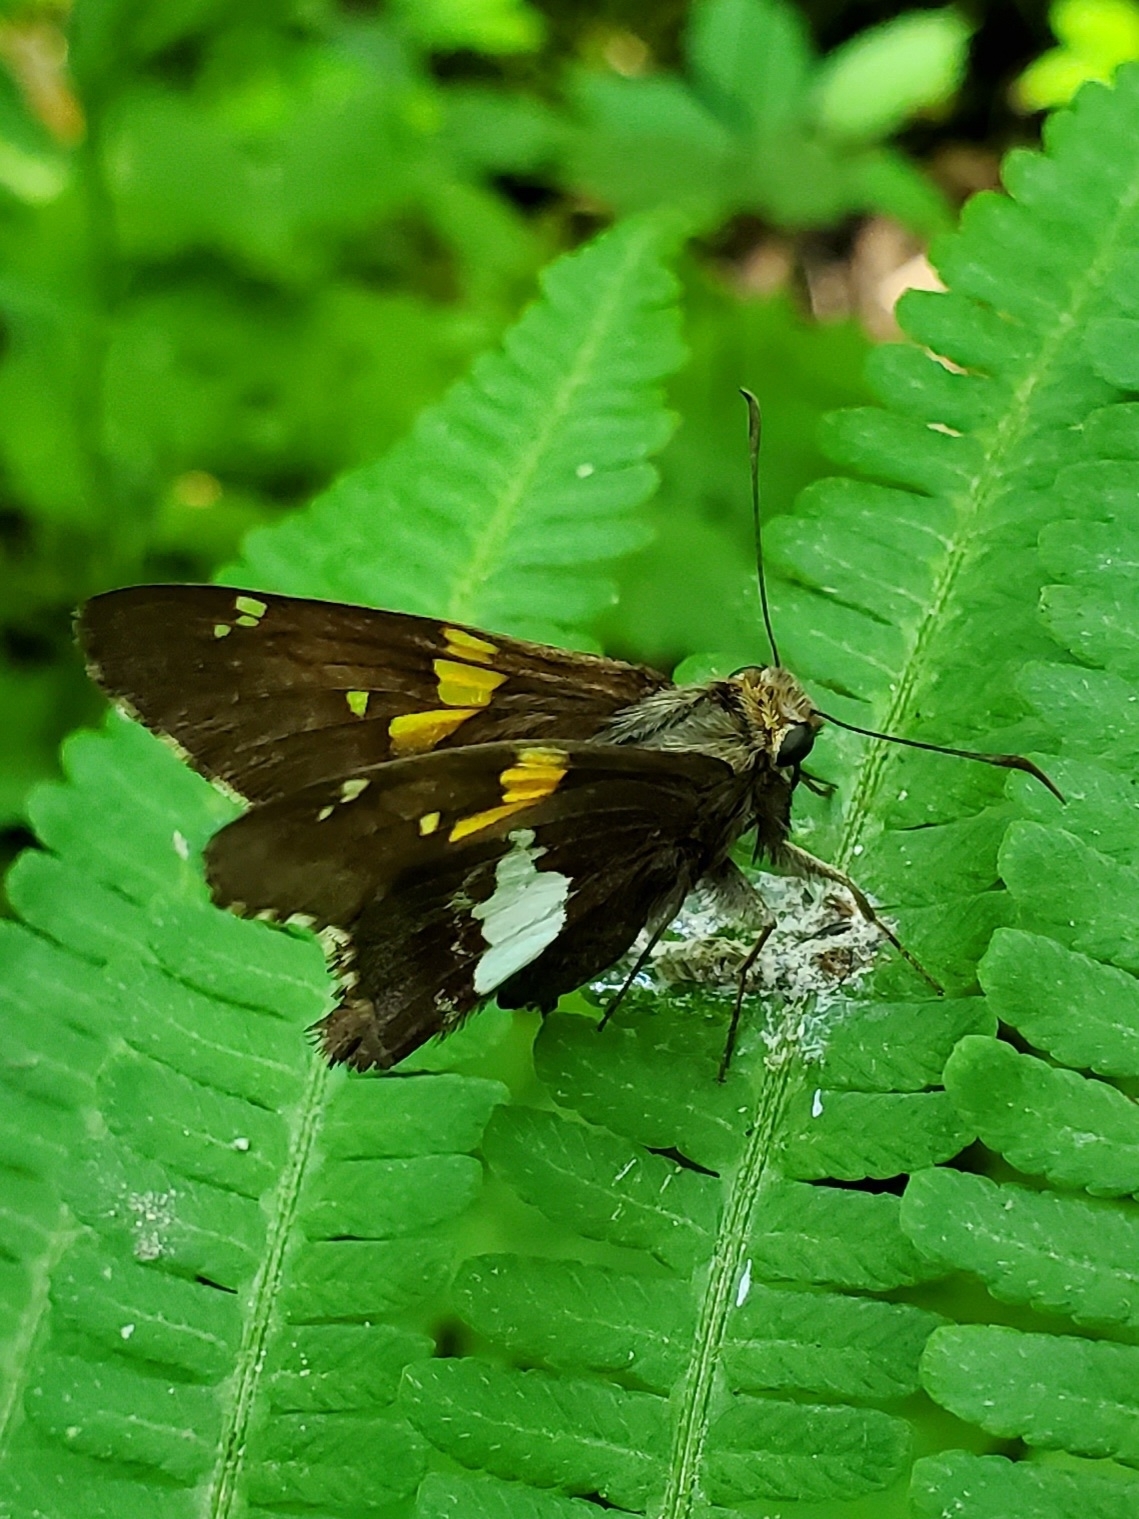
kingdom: Animalia
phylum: Arthropoda
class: Insecta
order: Lepidoptera
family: Hesperiidae
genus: Epargyreus
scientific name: Epargyreus clarus
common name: Silver-spotted skipper
